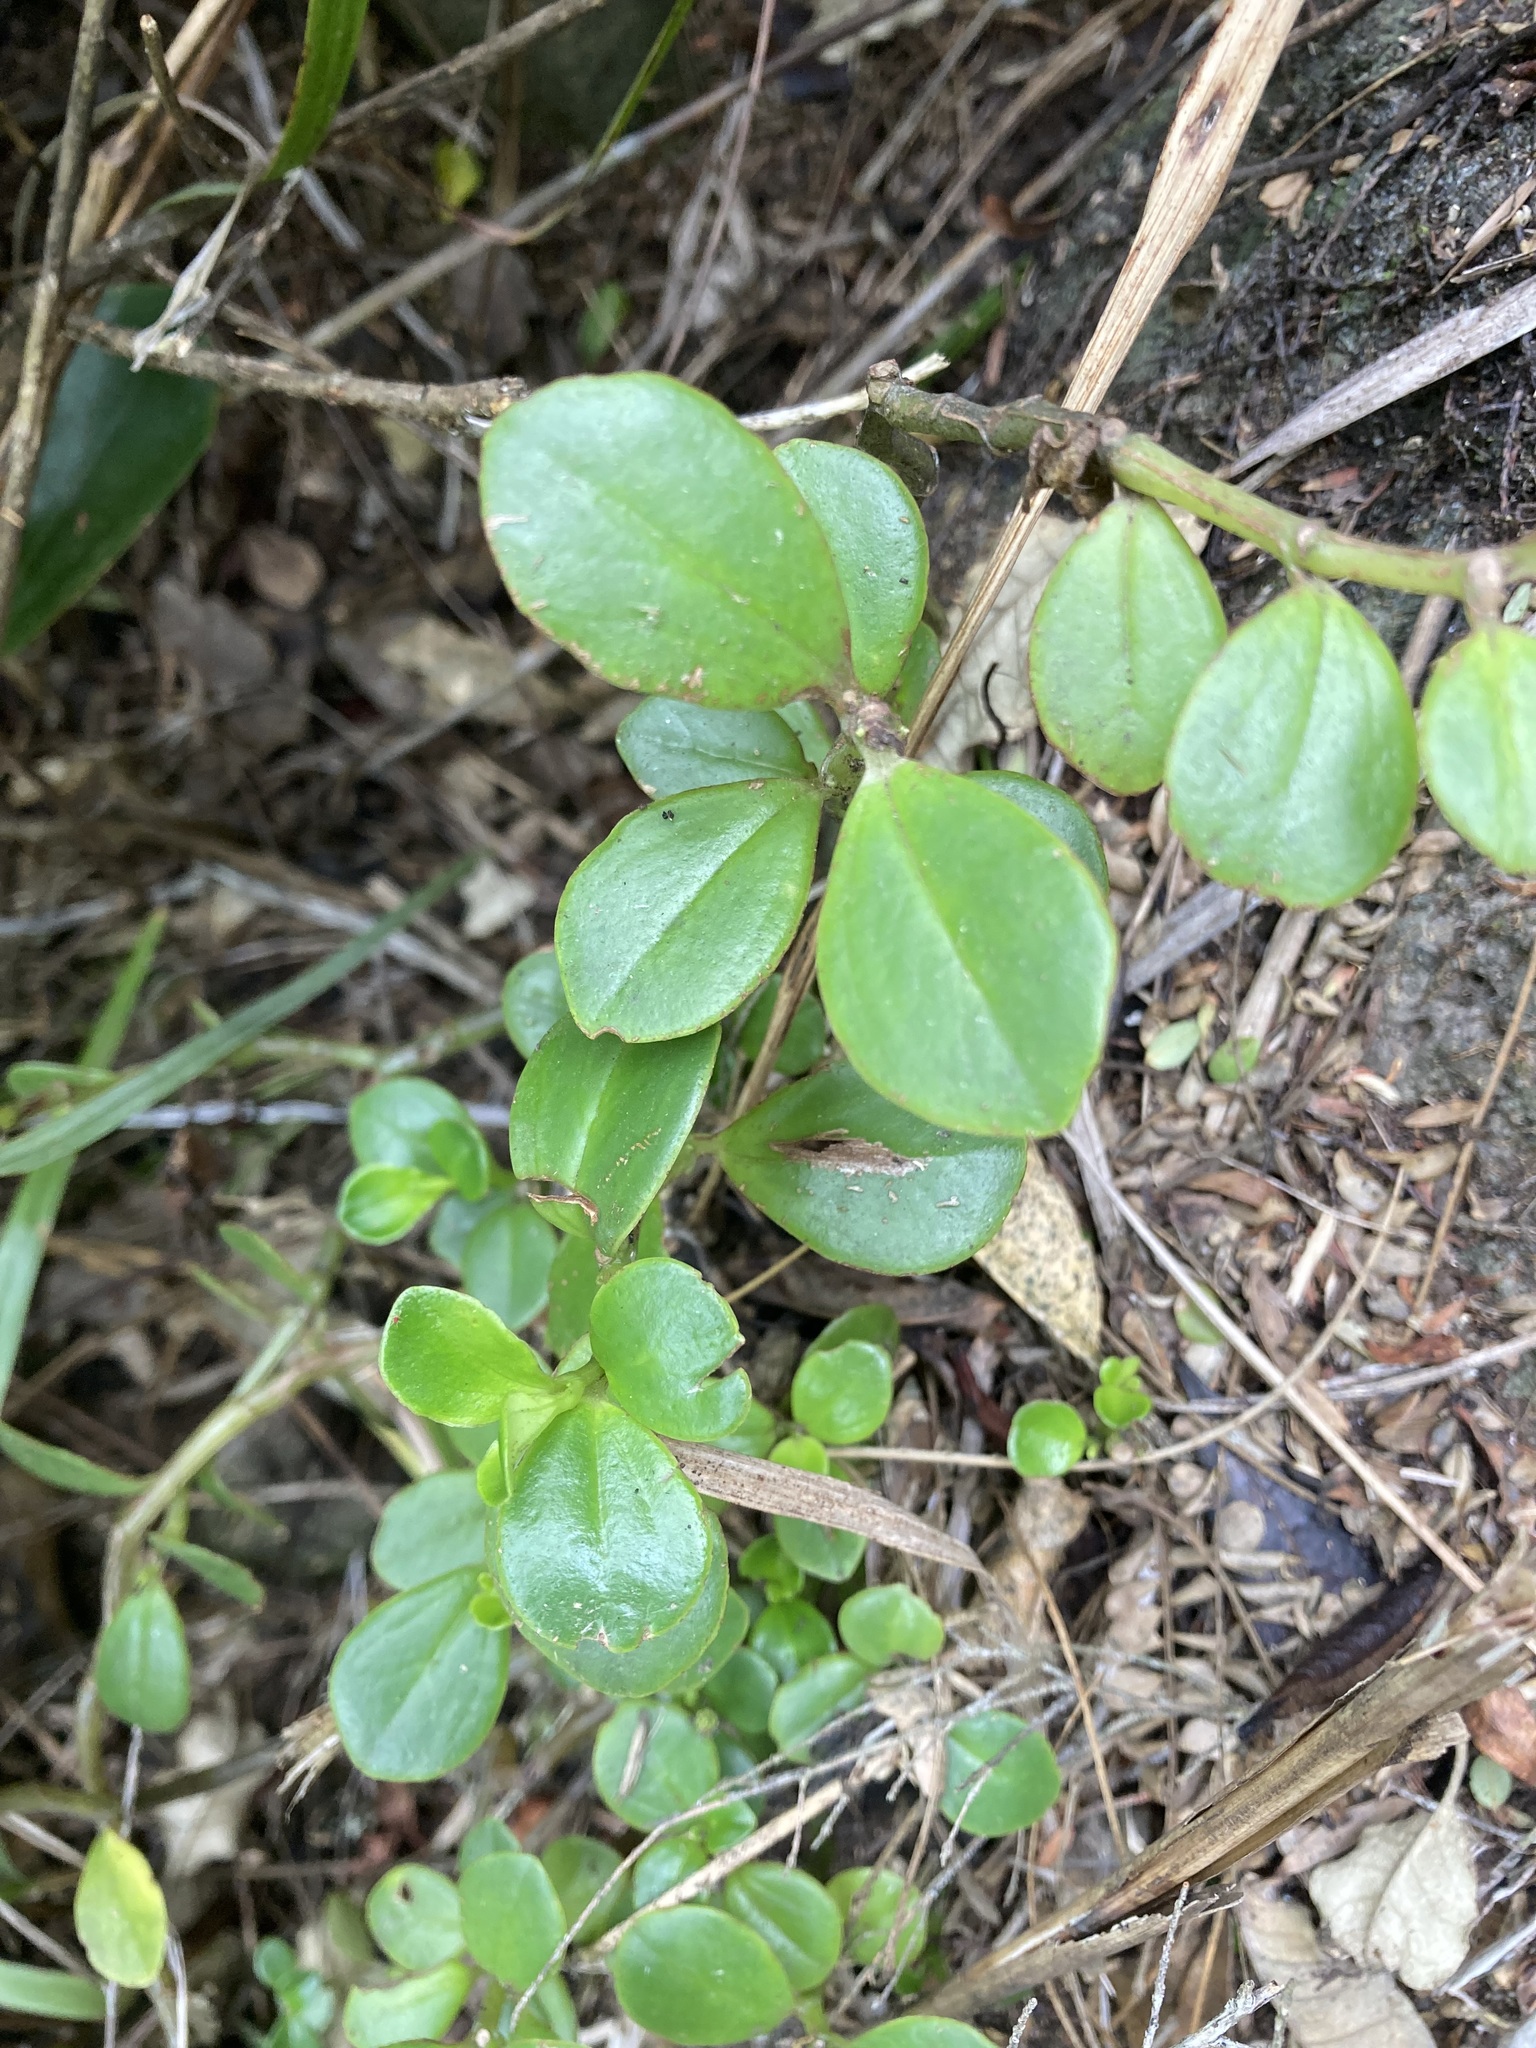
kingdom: Plantae
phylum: Tracheophyta
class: Magnoliopsida
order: Piperales
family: Piperaceae
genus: Peperomia
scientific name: Peperomia urvilleana
